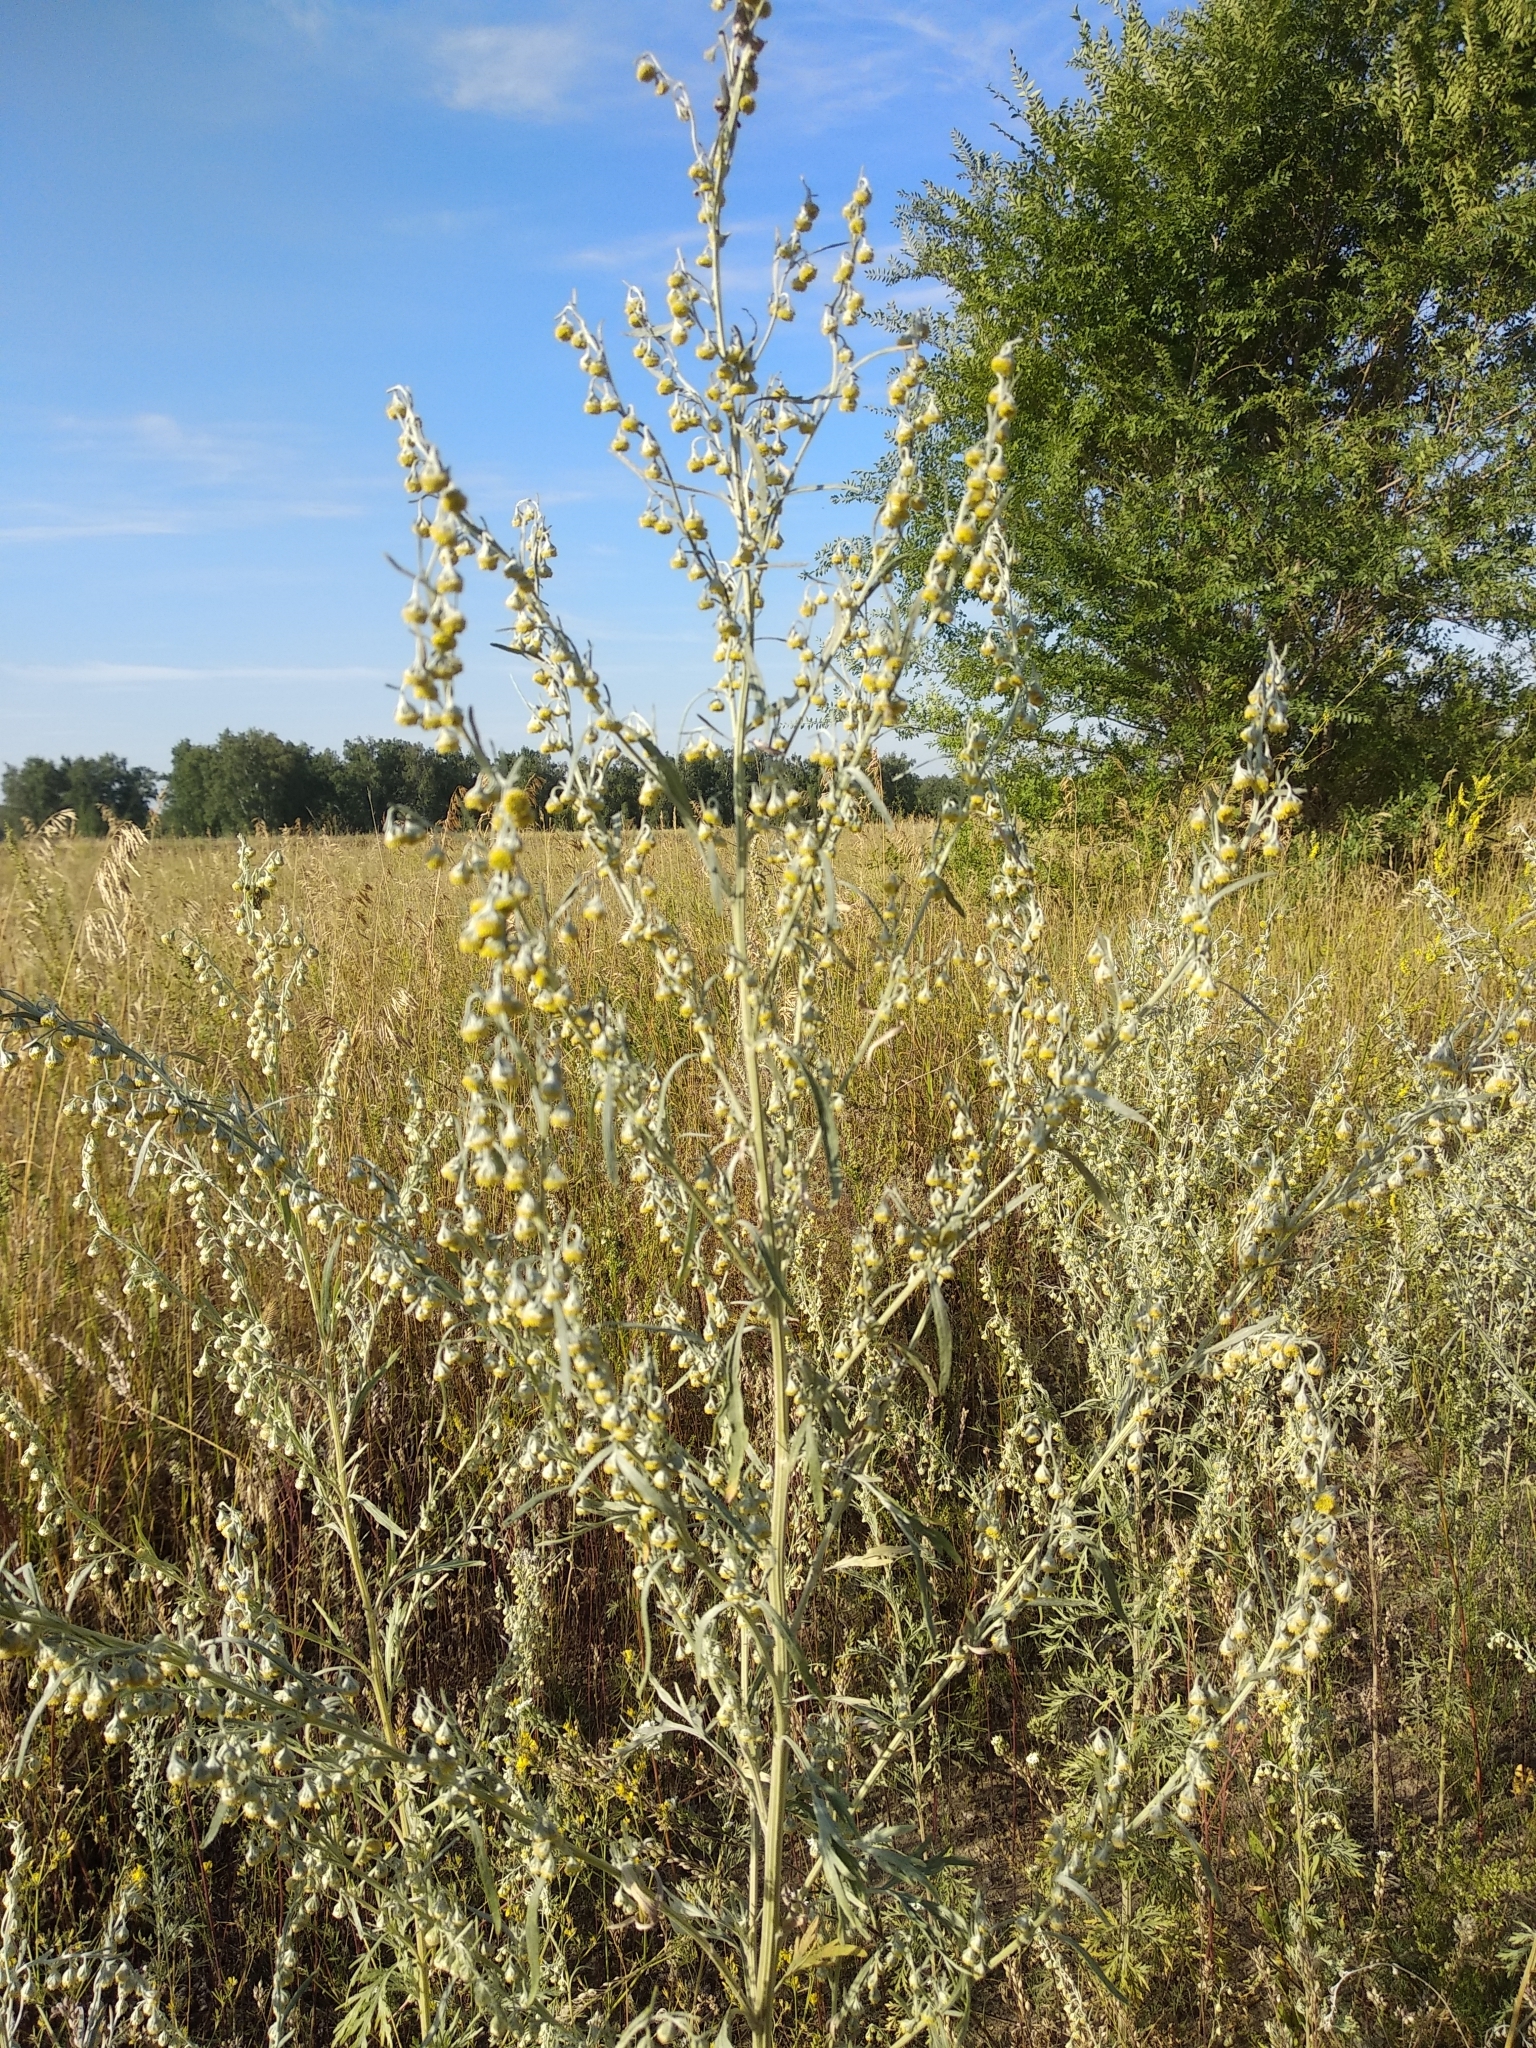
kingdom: Plantae
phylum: Tracheophyta
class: Magnoliopsida
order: Asterales
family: Asteraceae
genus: Artemisia
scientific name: Artemisia sieversiana
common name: Sieversian wormwood
